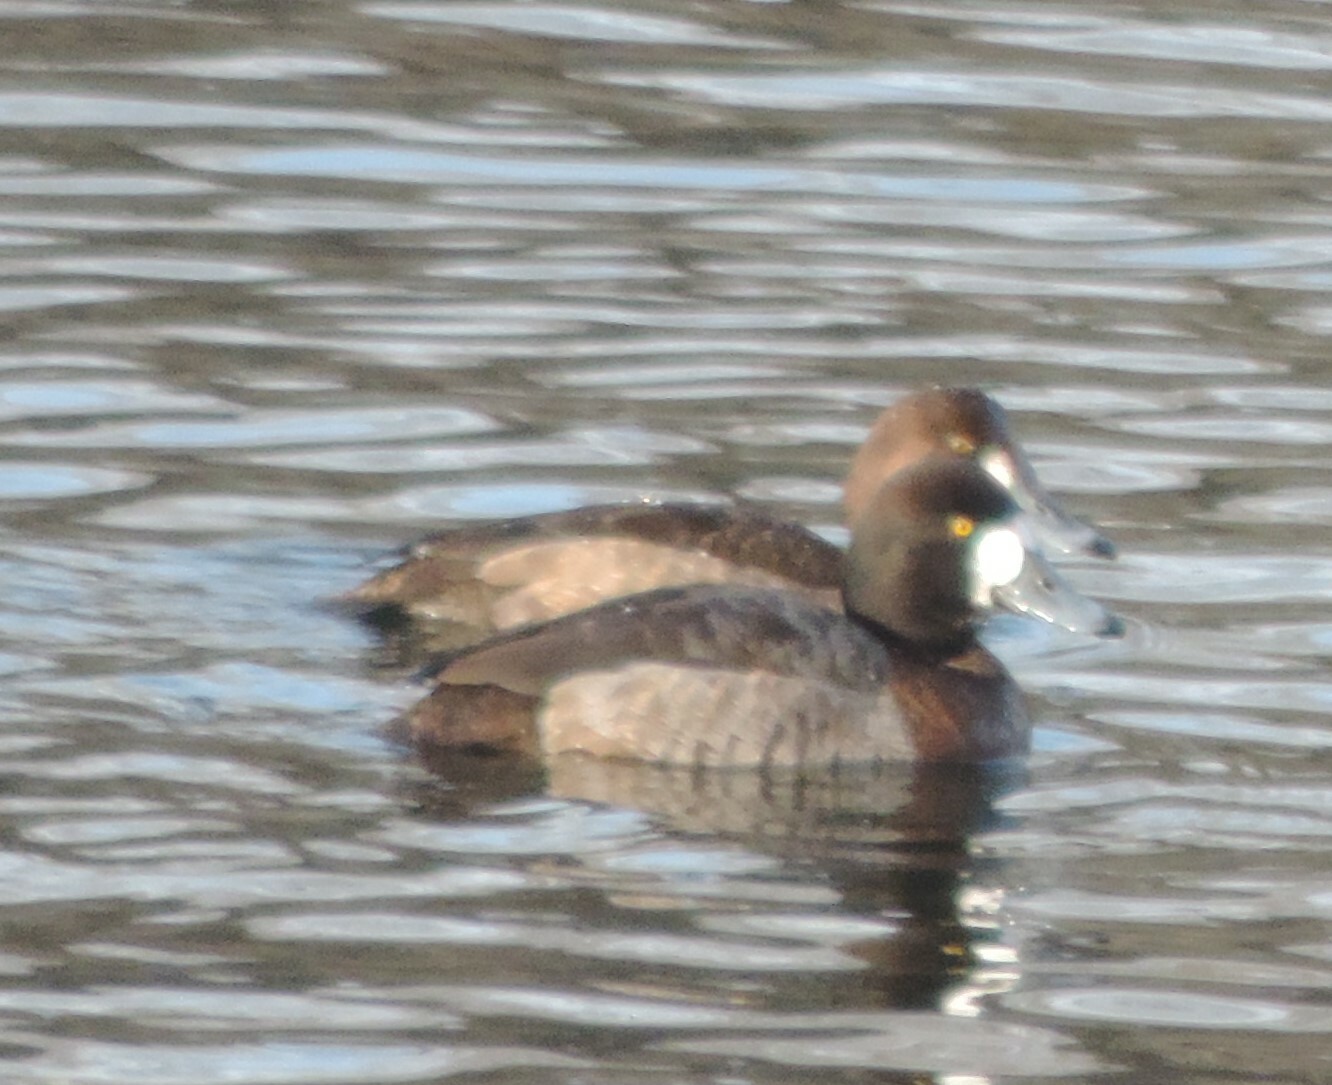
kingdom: Animalia
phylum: Chordata
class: Aves
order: Anseriformes
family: Anatidae
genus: Aythya
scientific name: Aythya marila
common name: Greater scaup
